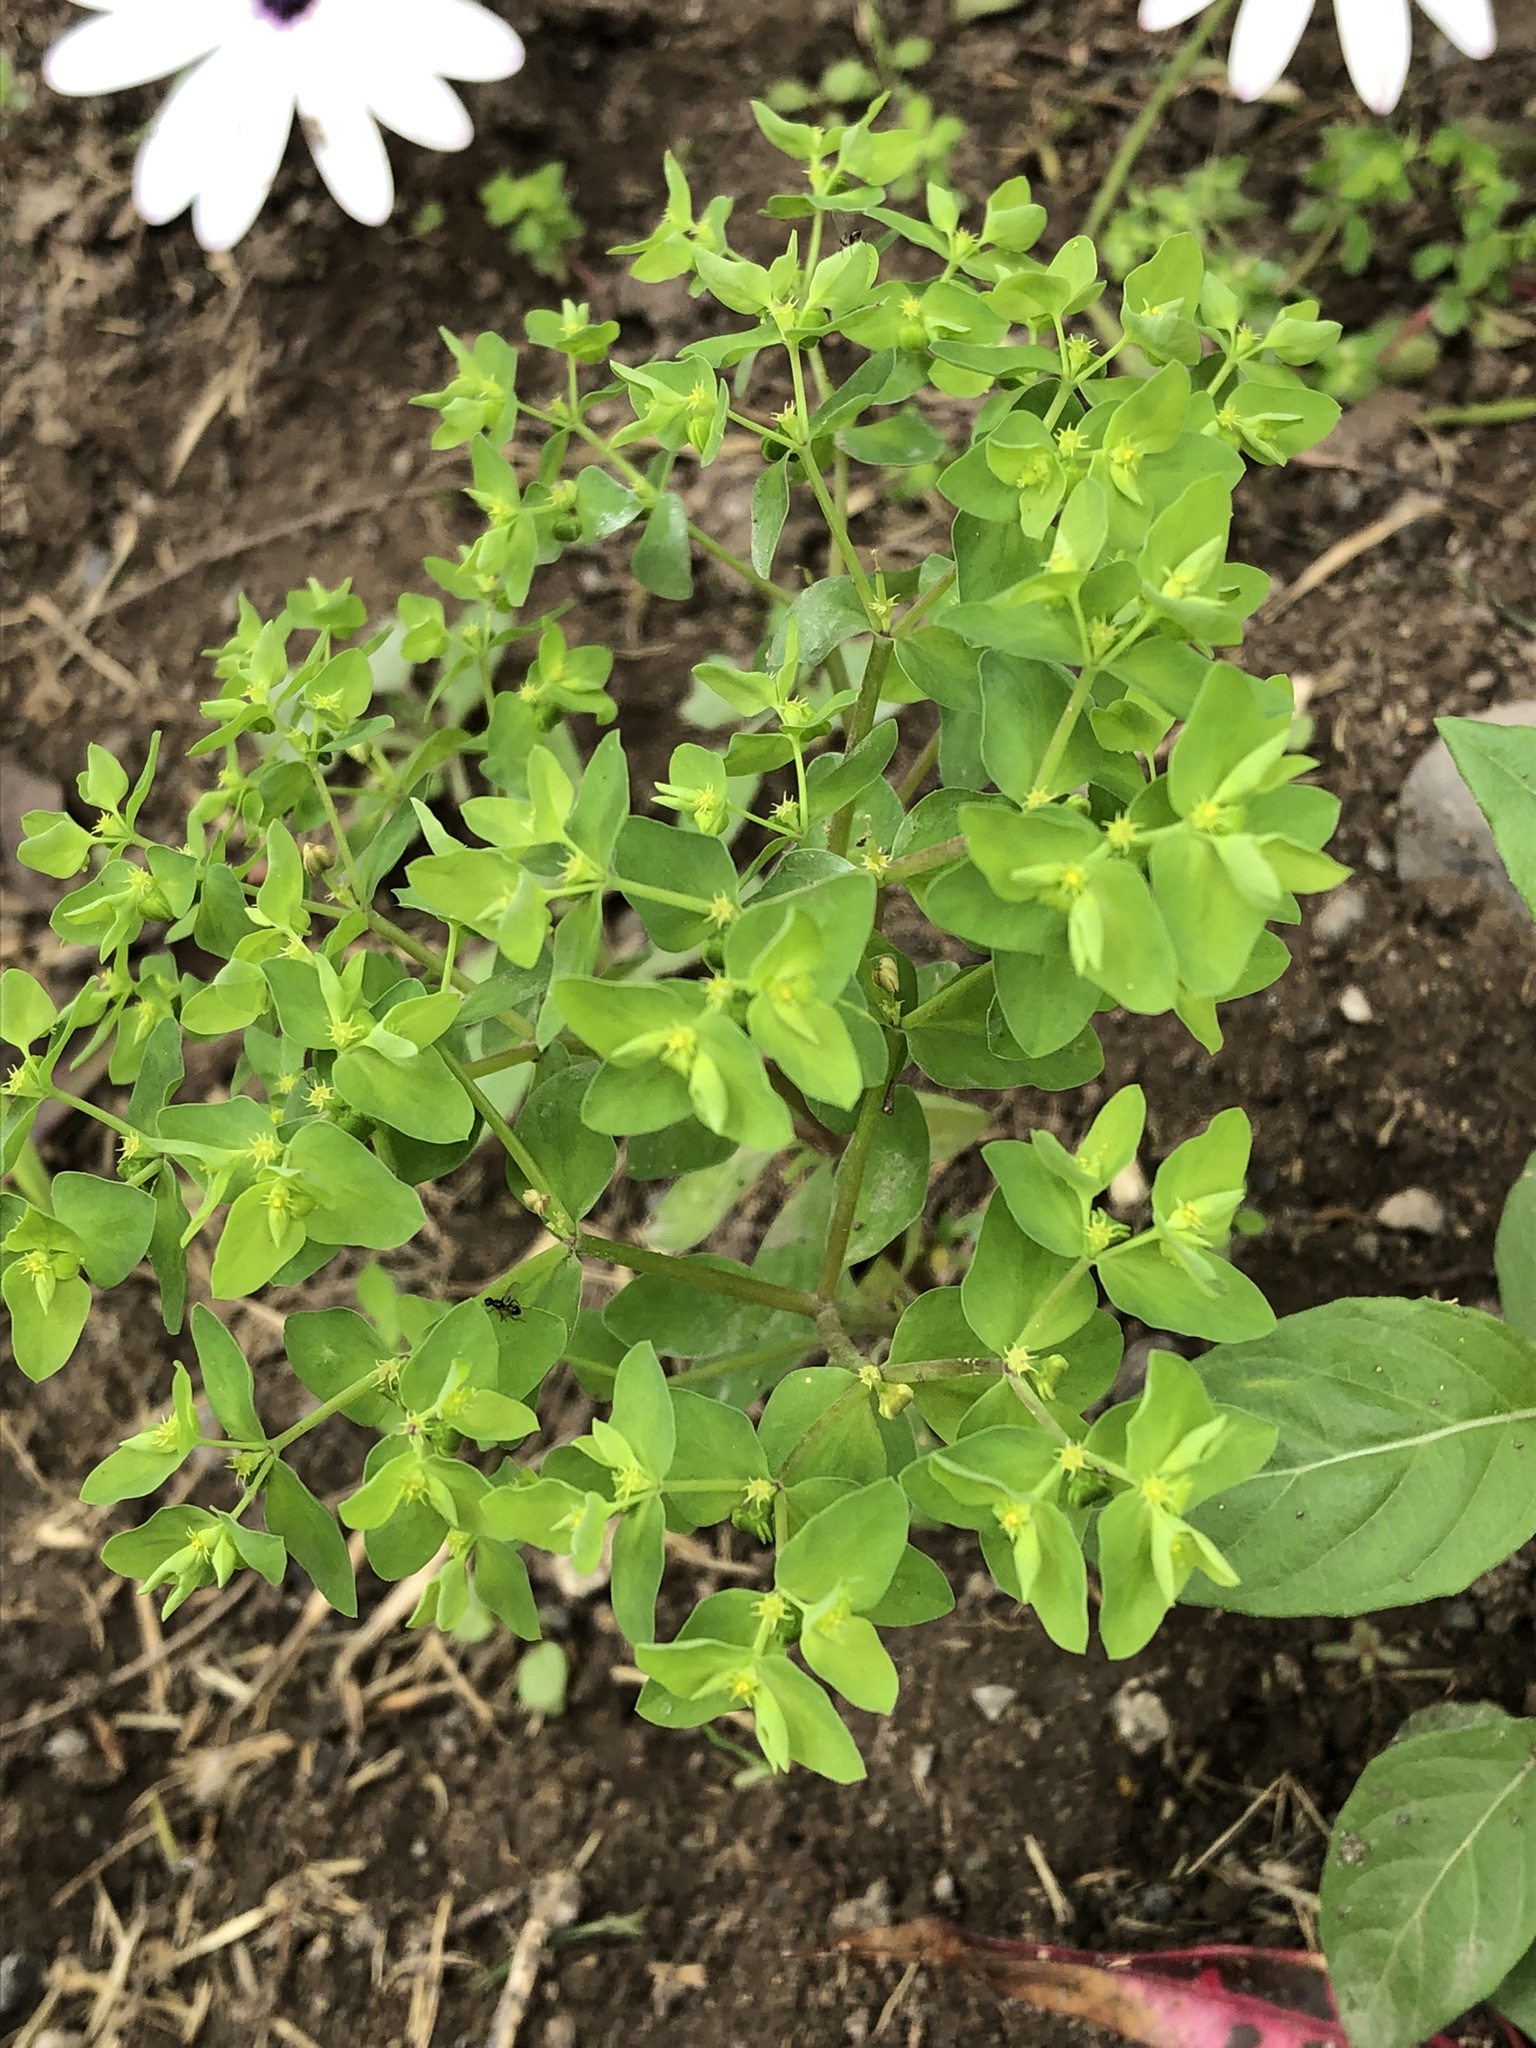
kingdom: Plantae
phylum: Tracheophyta
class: Magnoliopsida
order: Malpighiales
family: Euphorbiaceae
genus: Euphorbia
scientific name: Euphorbia peplus
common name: Petty spurge
